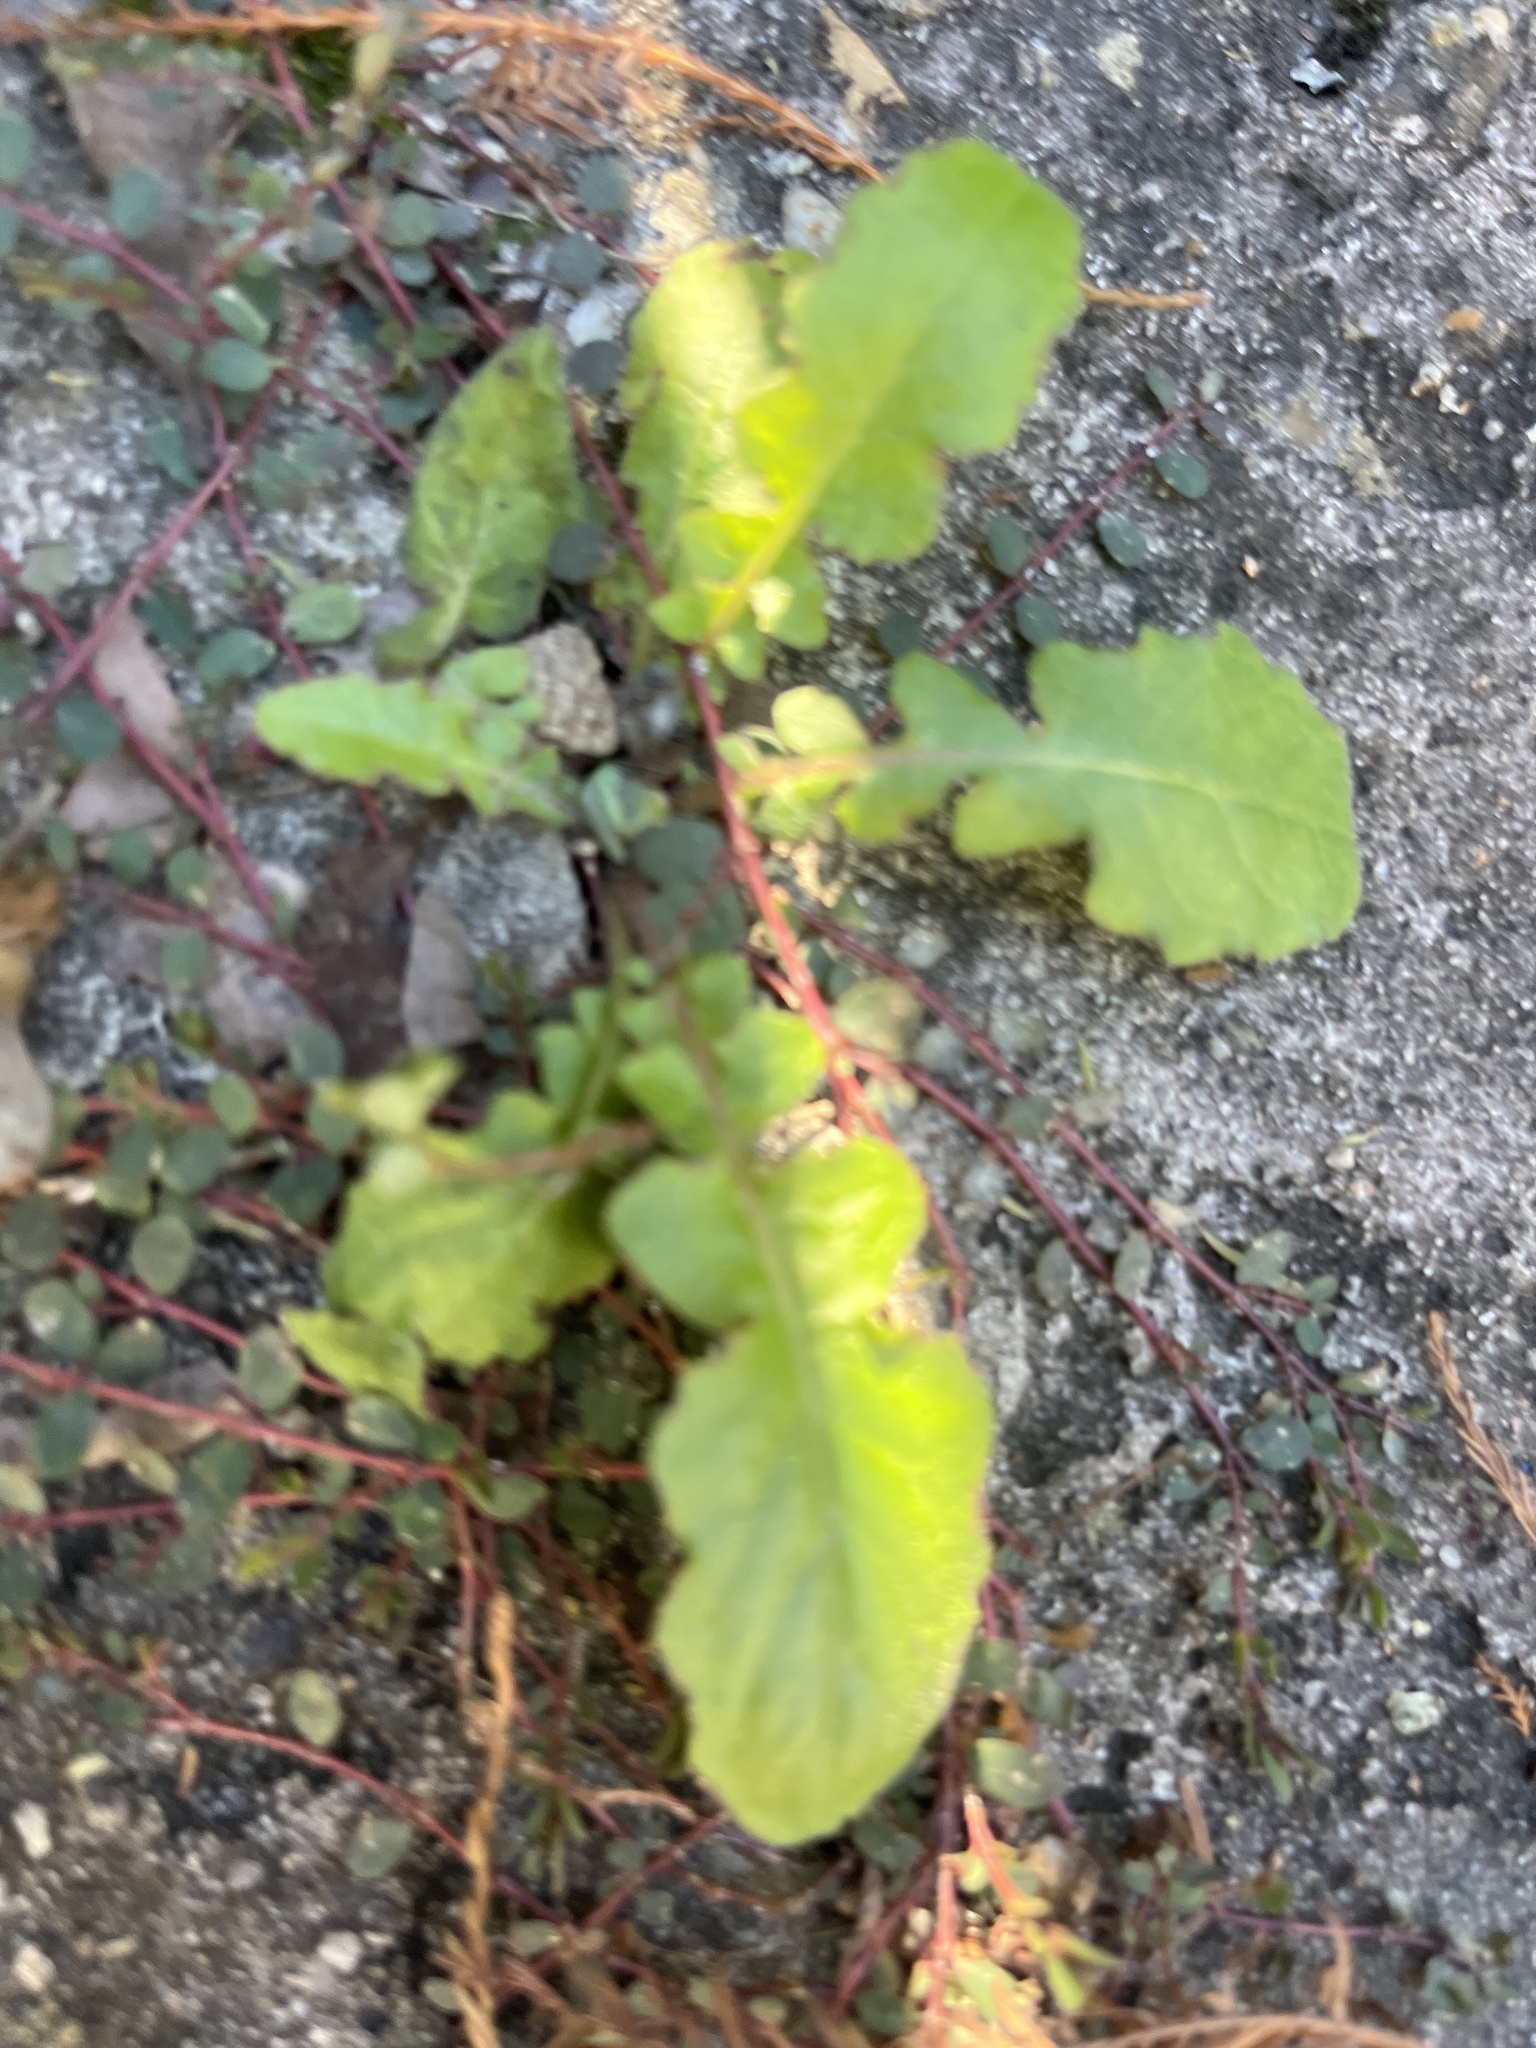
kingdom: Plantae
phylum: Tracheophyta
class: Magnoliopsida
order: Asterales
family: Asteraceae
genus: Youngia
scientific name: Youngia japonica
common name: Oriental false hawksbeard
